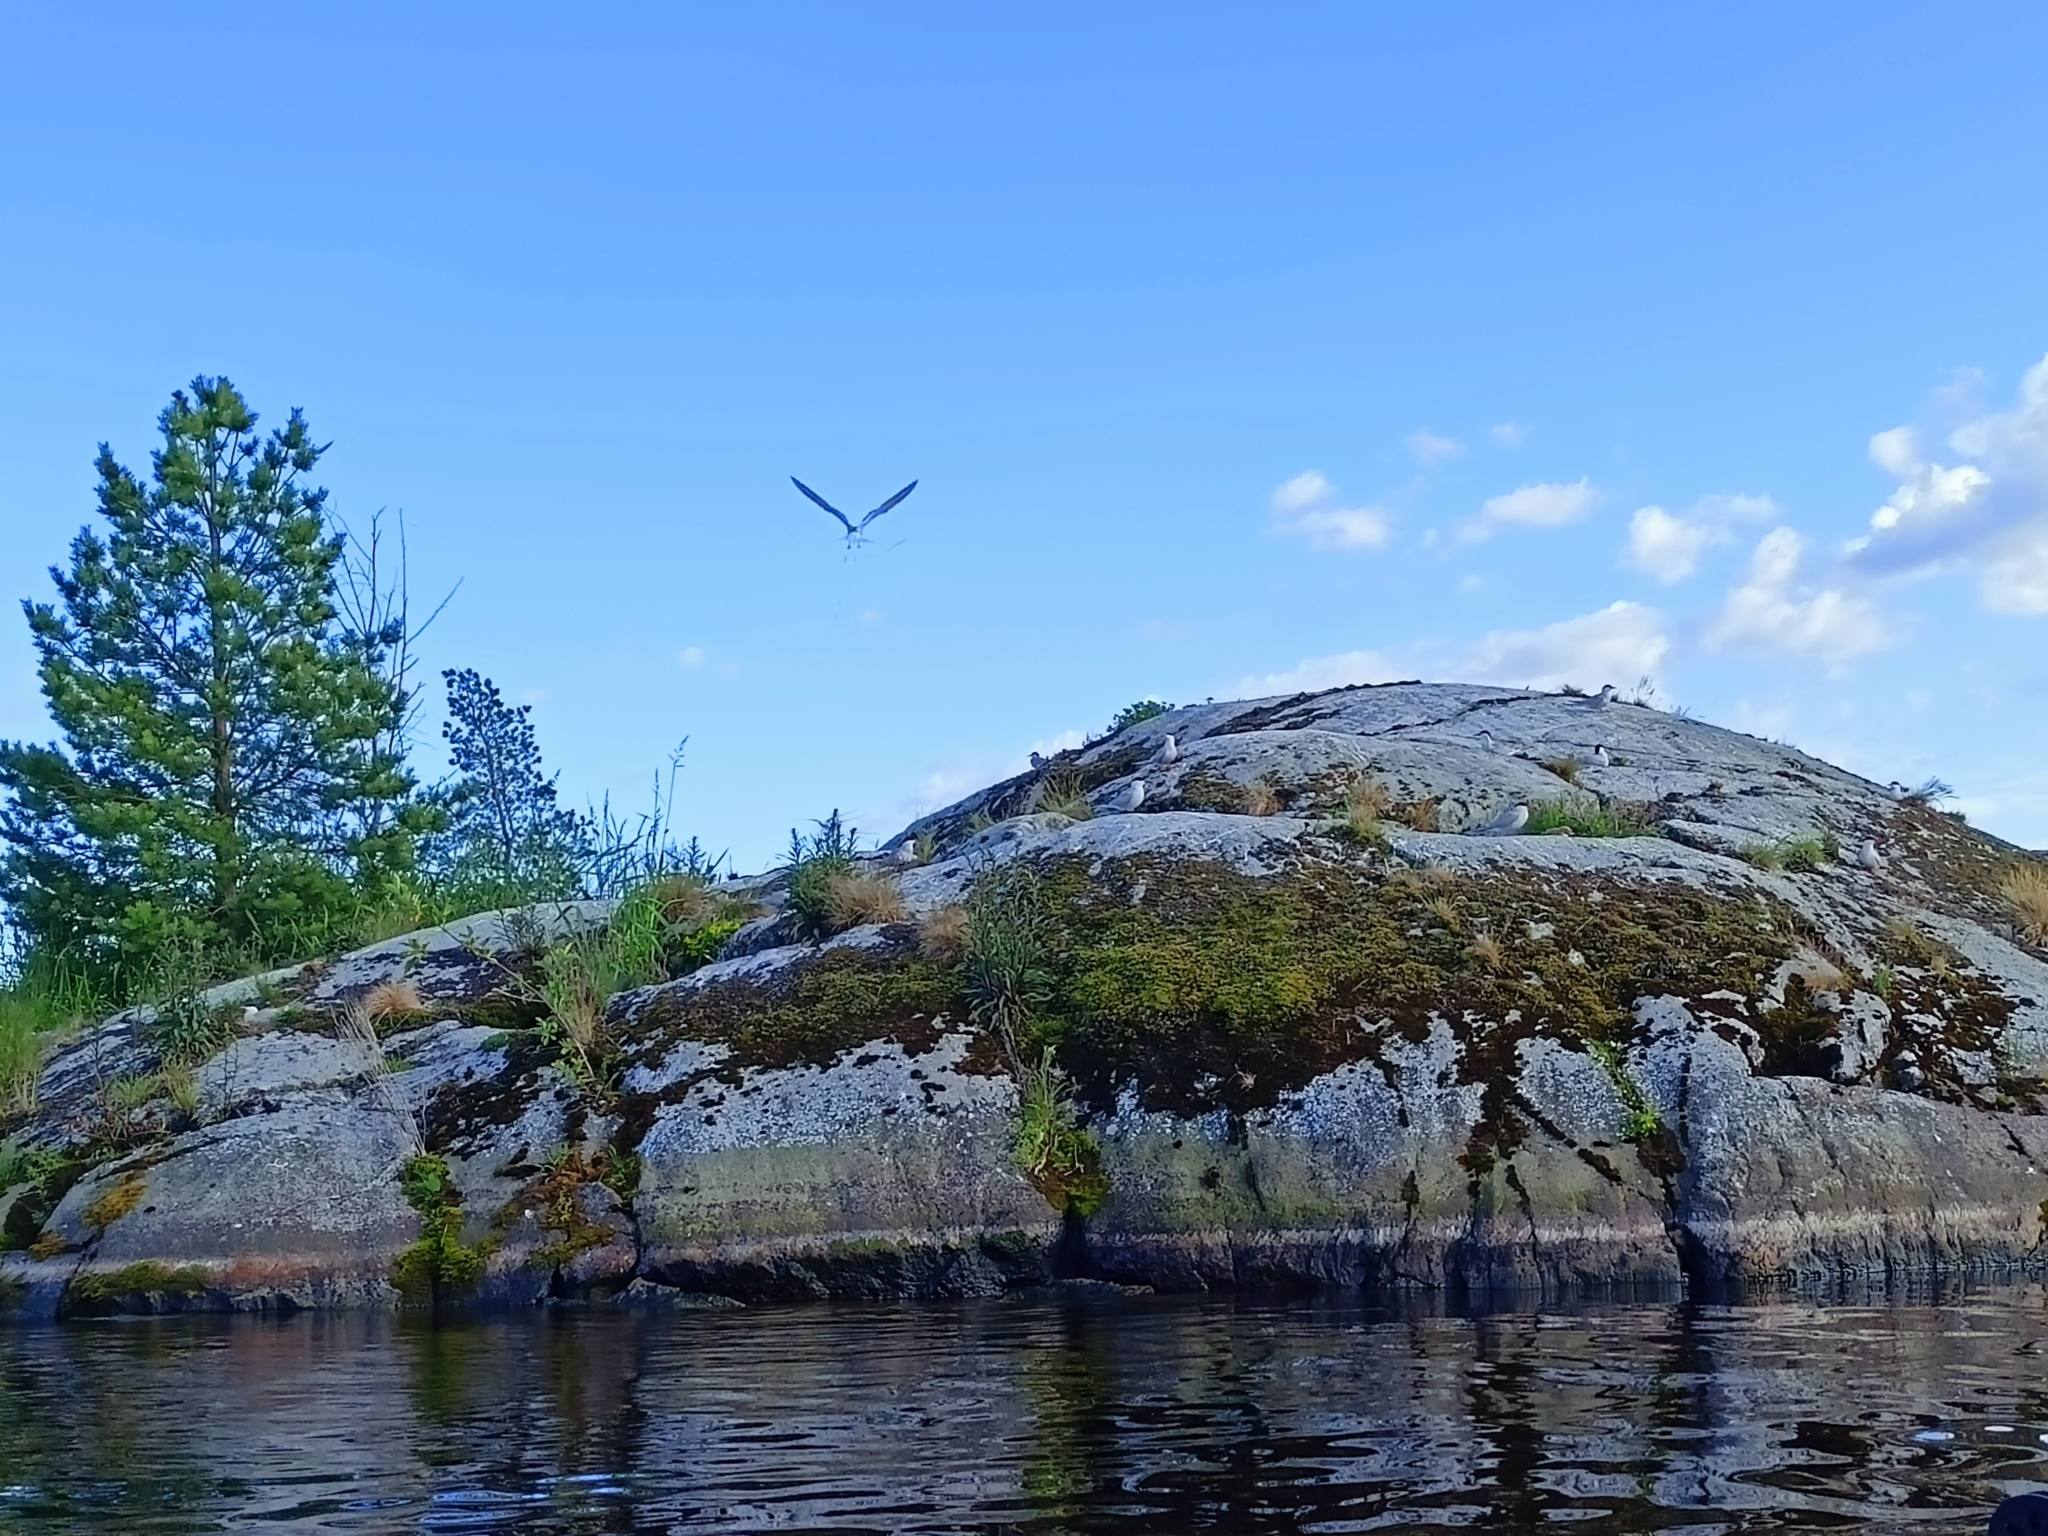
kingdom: Animalia
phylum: Chordata
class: Aves
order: Charadriiformes
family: Laridae
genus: Sterna
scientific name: Sterna hirundo
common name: Common tern
